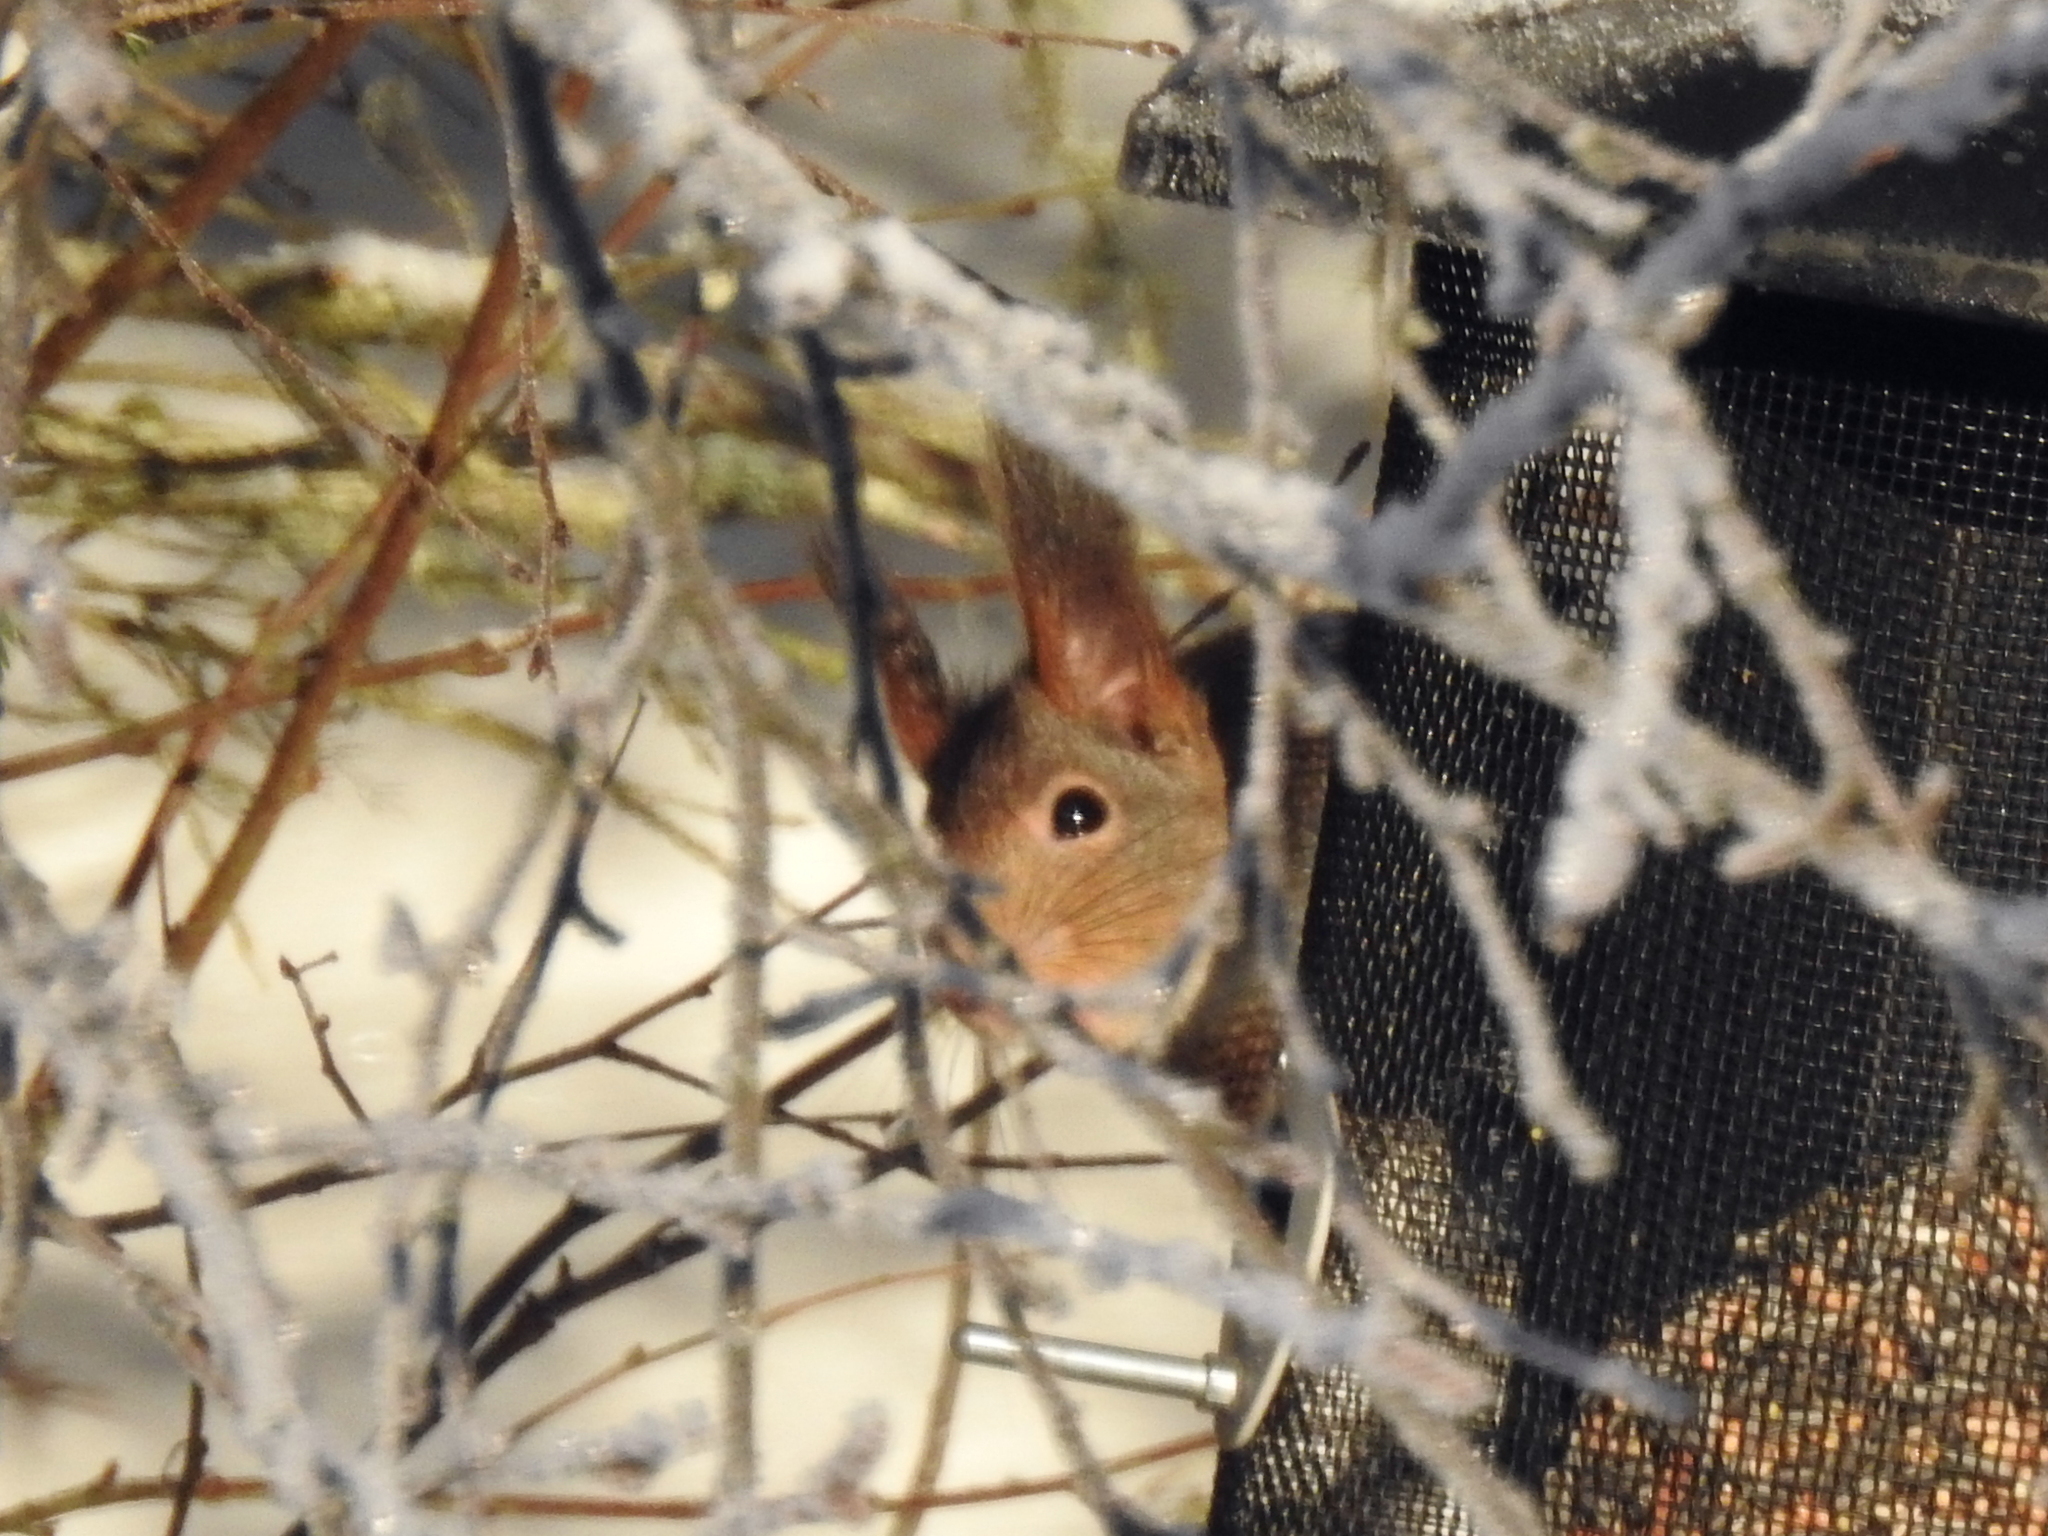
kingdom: Animalia
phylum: Chordata
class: Mammalia
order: Rodentia
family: Sciuridae
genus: Sciurus
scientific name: Sciurus vulgaris
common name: Eurasian red squirrel
